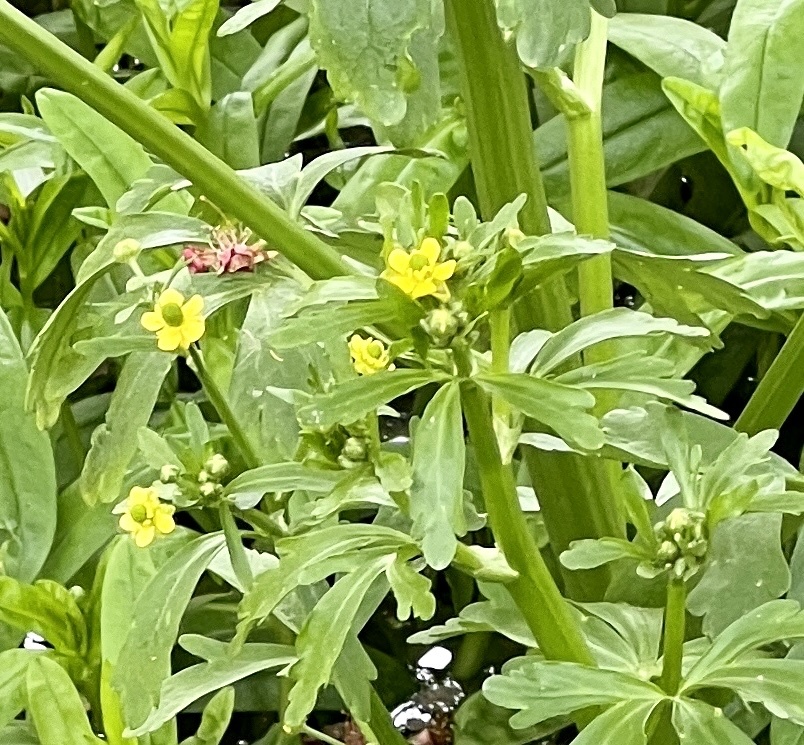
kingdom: Plantae
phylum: Tracheophyta
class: Magnoliopsida
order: Ranunculales
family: Ranunculaceae
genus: Ranunculus
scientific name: Ranunculus sceleratus
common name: Celery-leaved buttercup
